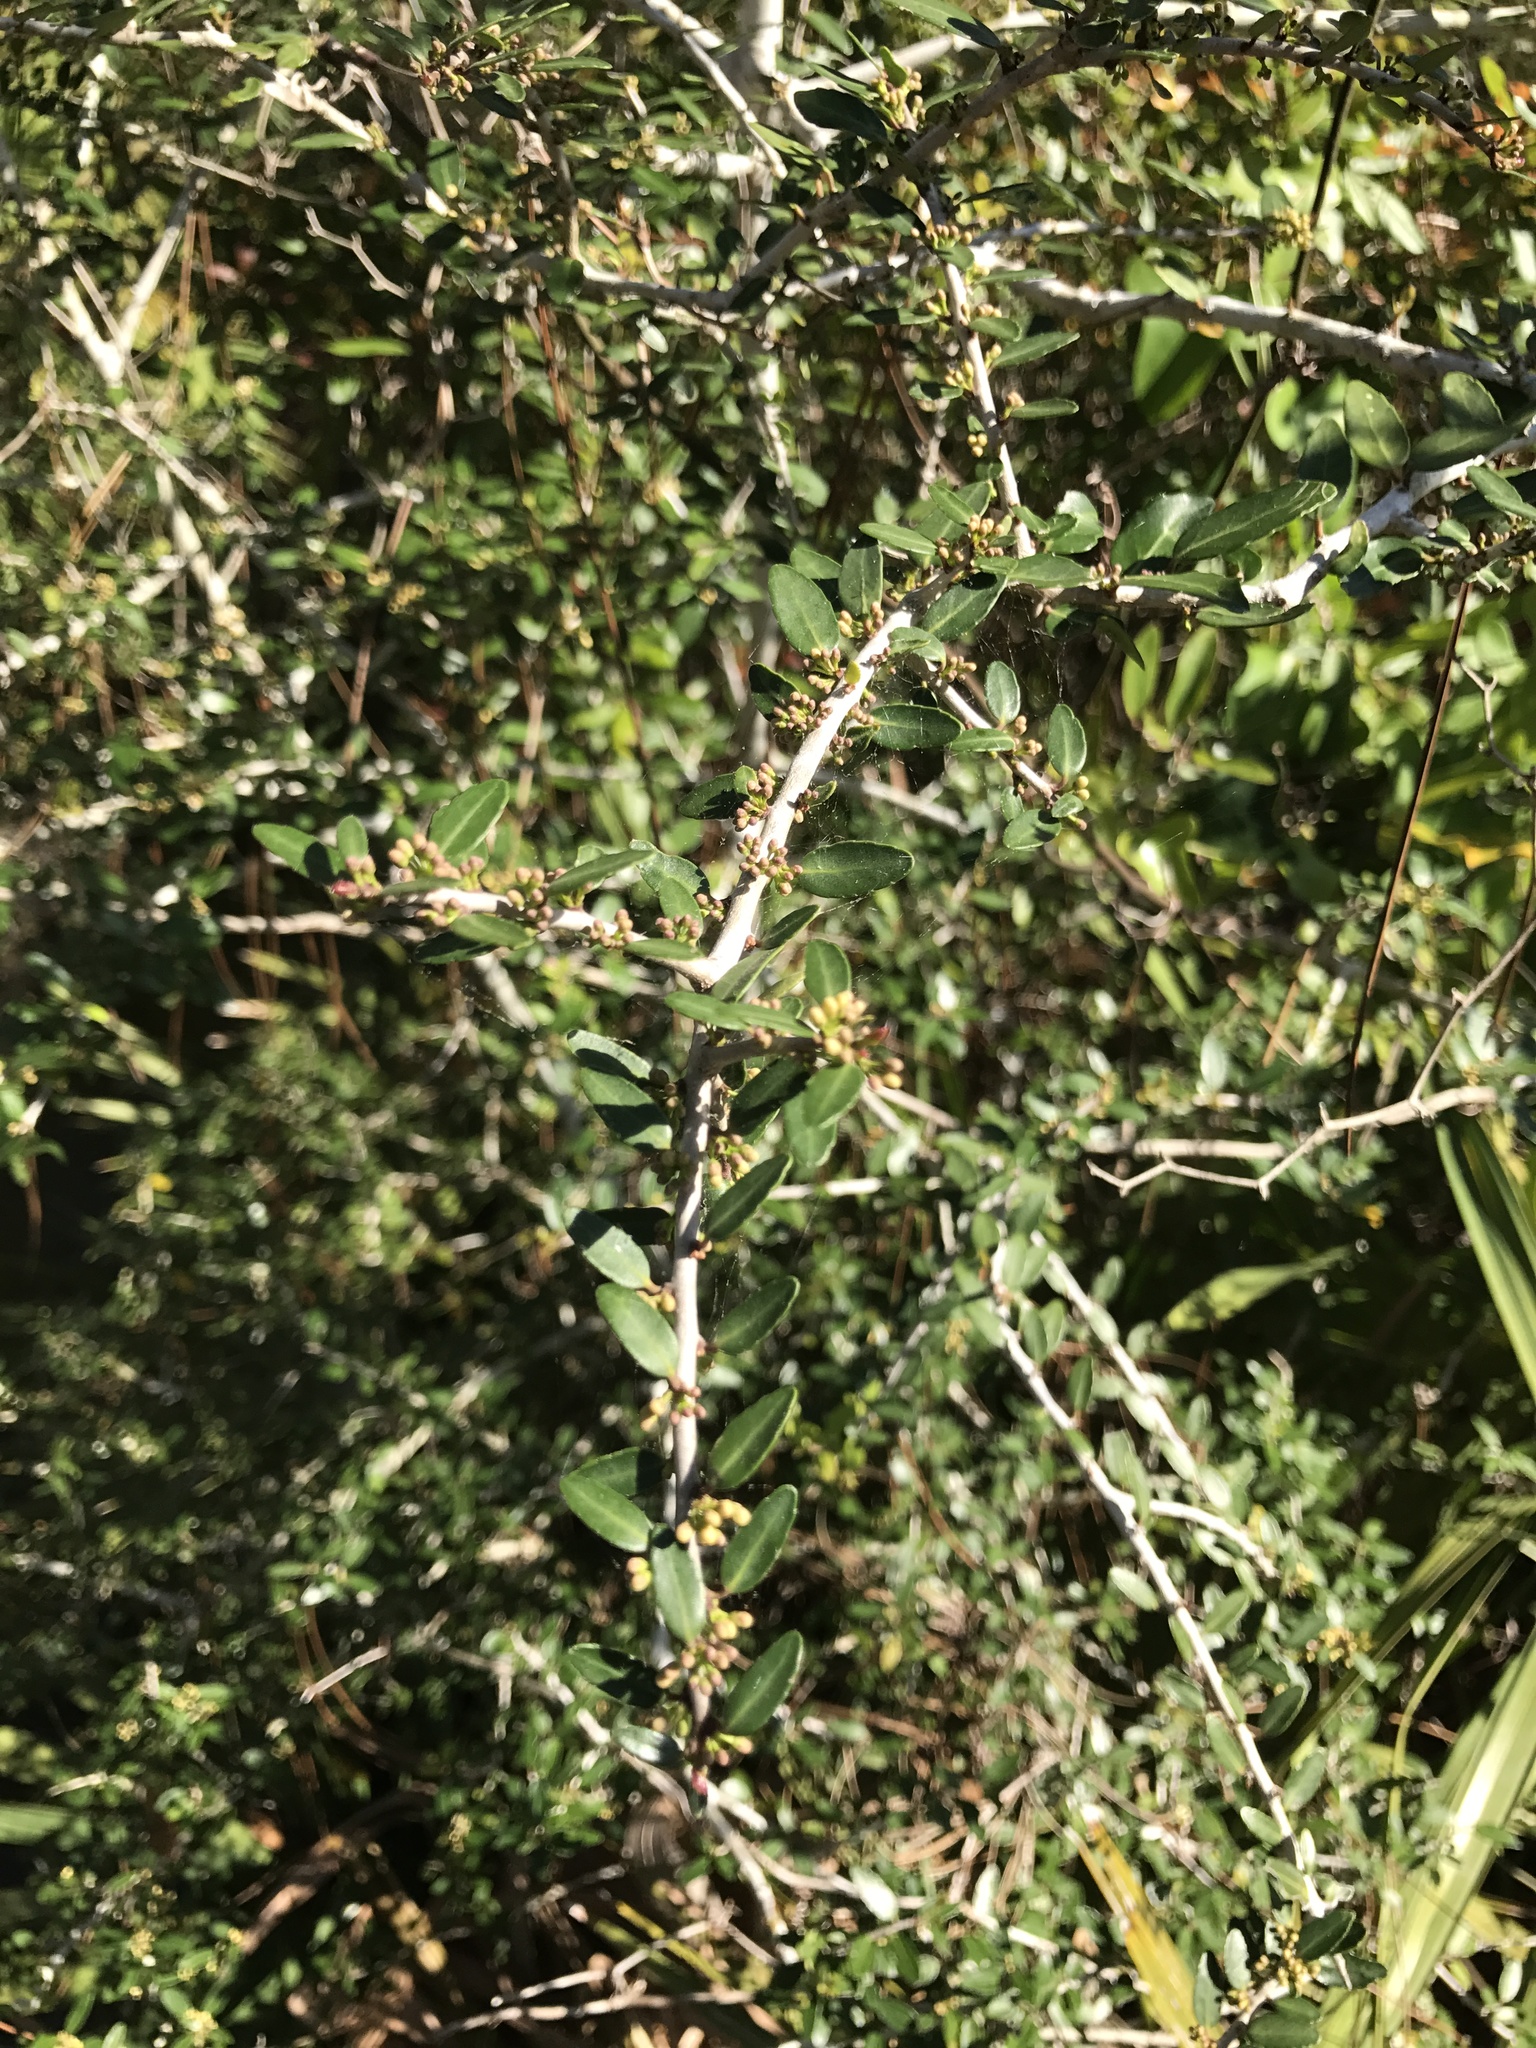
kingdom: Plantae
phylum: Tracheophyta
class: Magnoliopsida
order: Aquifoliales
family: Aquifoliaceae
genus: Ilex
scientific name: Ilex vomitoria
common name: Yaupon holly
